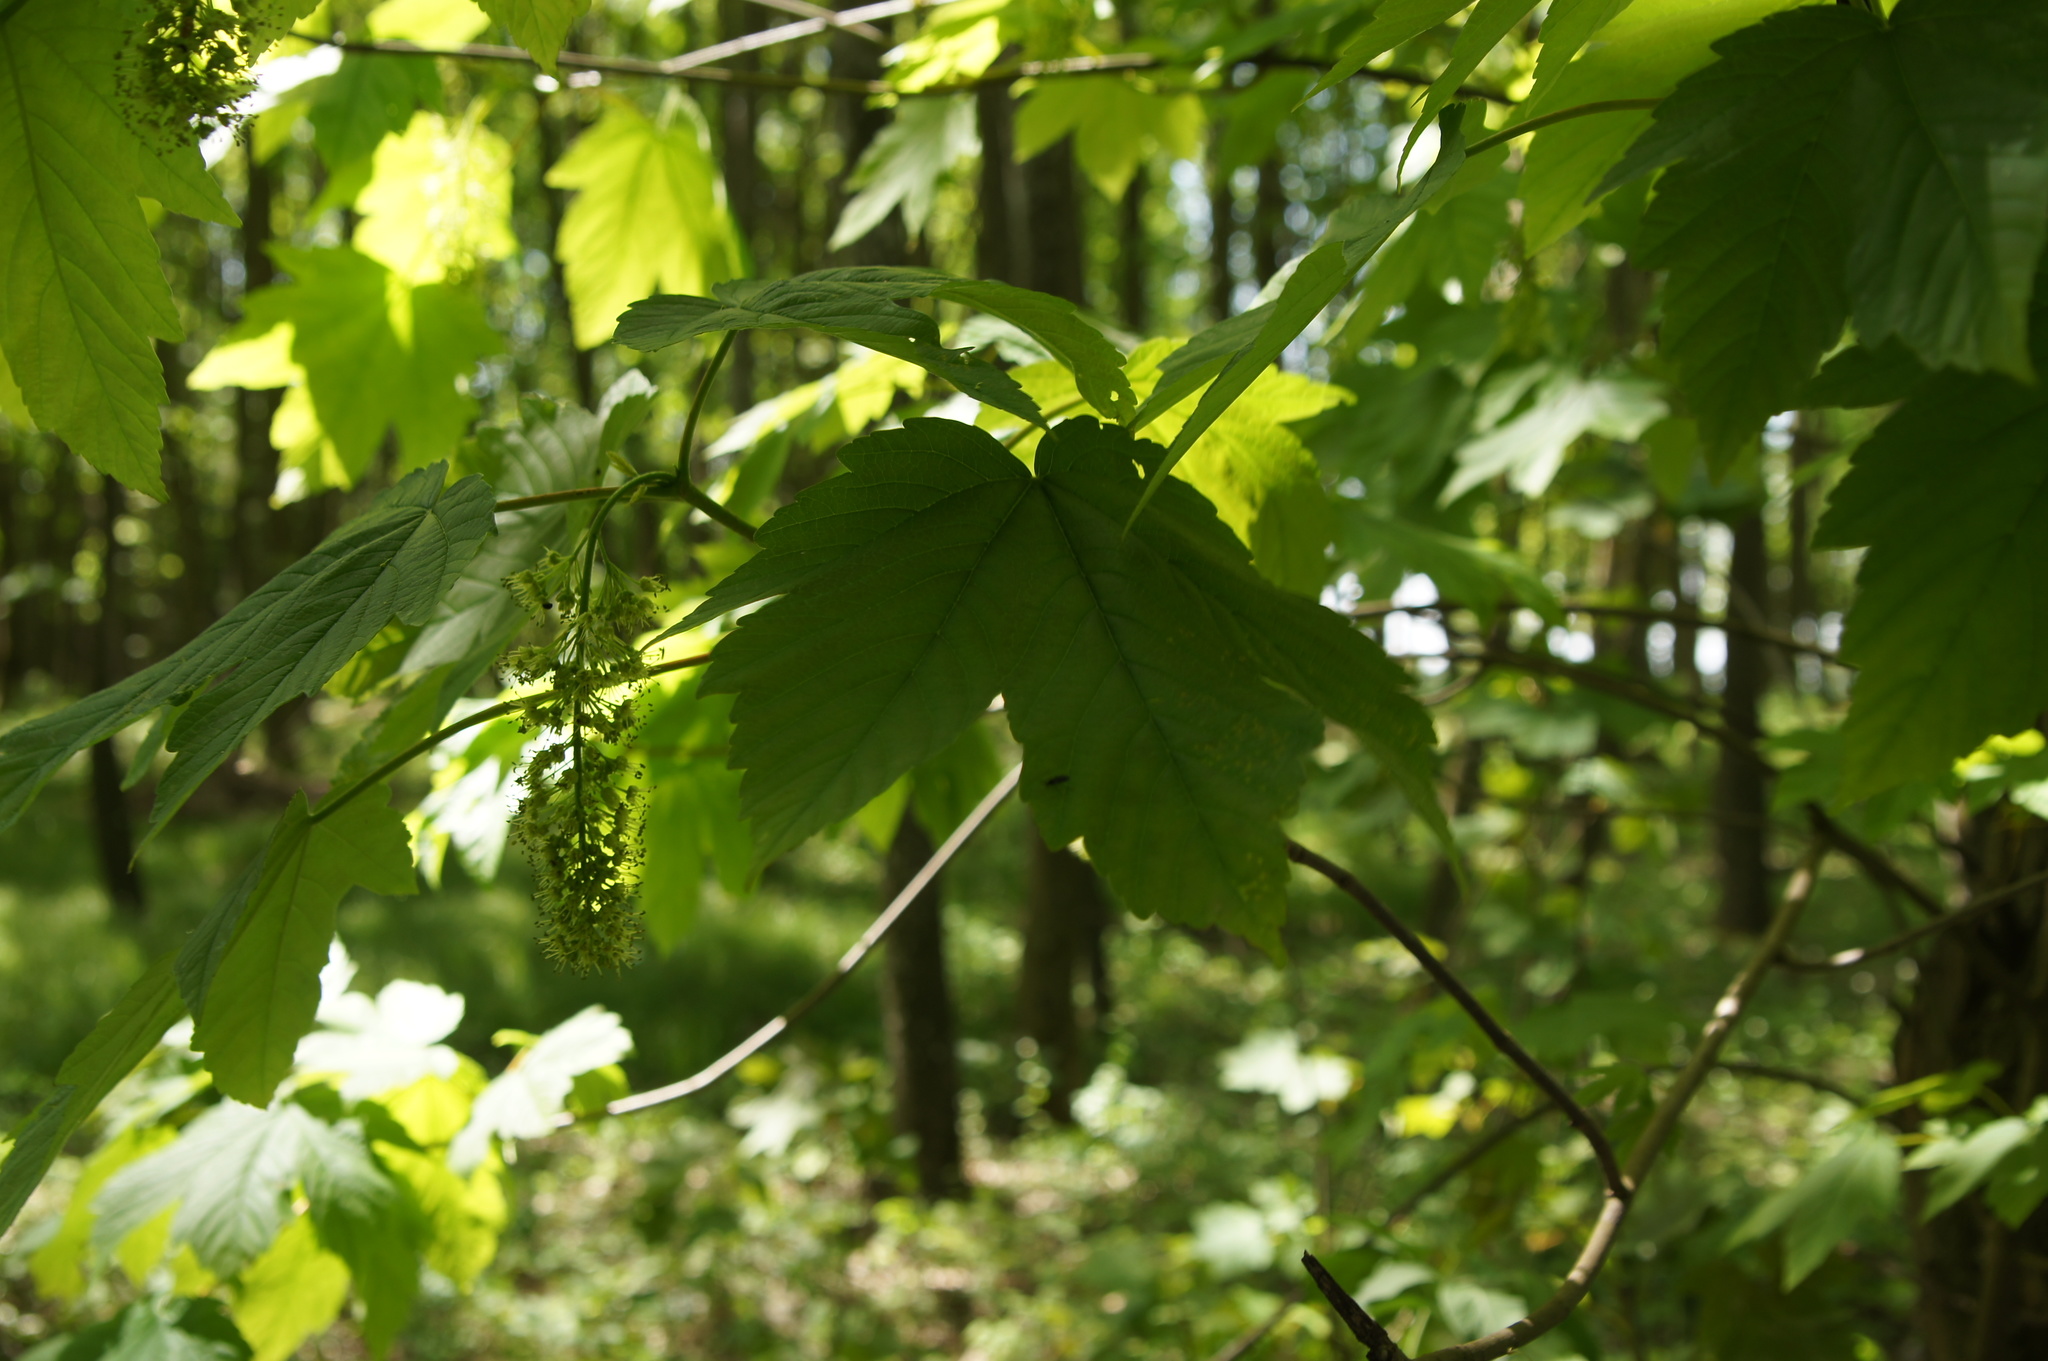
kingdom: Plantae
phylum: Tracheophyta
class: Magnoliopsida
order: Sapindales
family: Sapindaceae
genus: Acer
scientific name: Acer pseudoplatanus
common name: Sycamore
